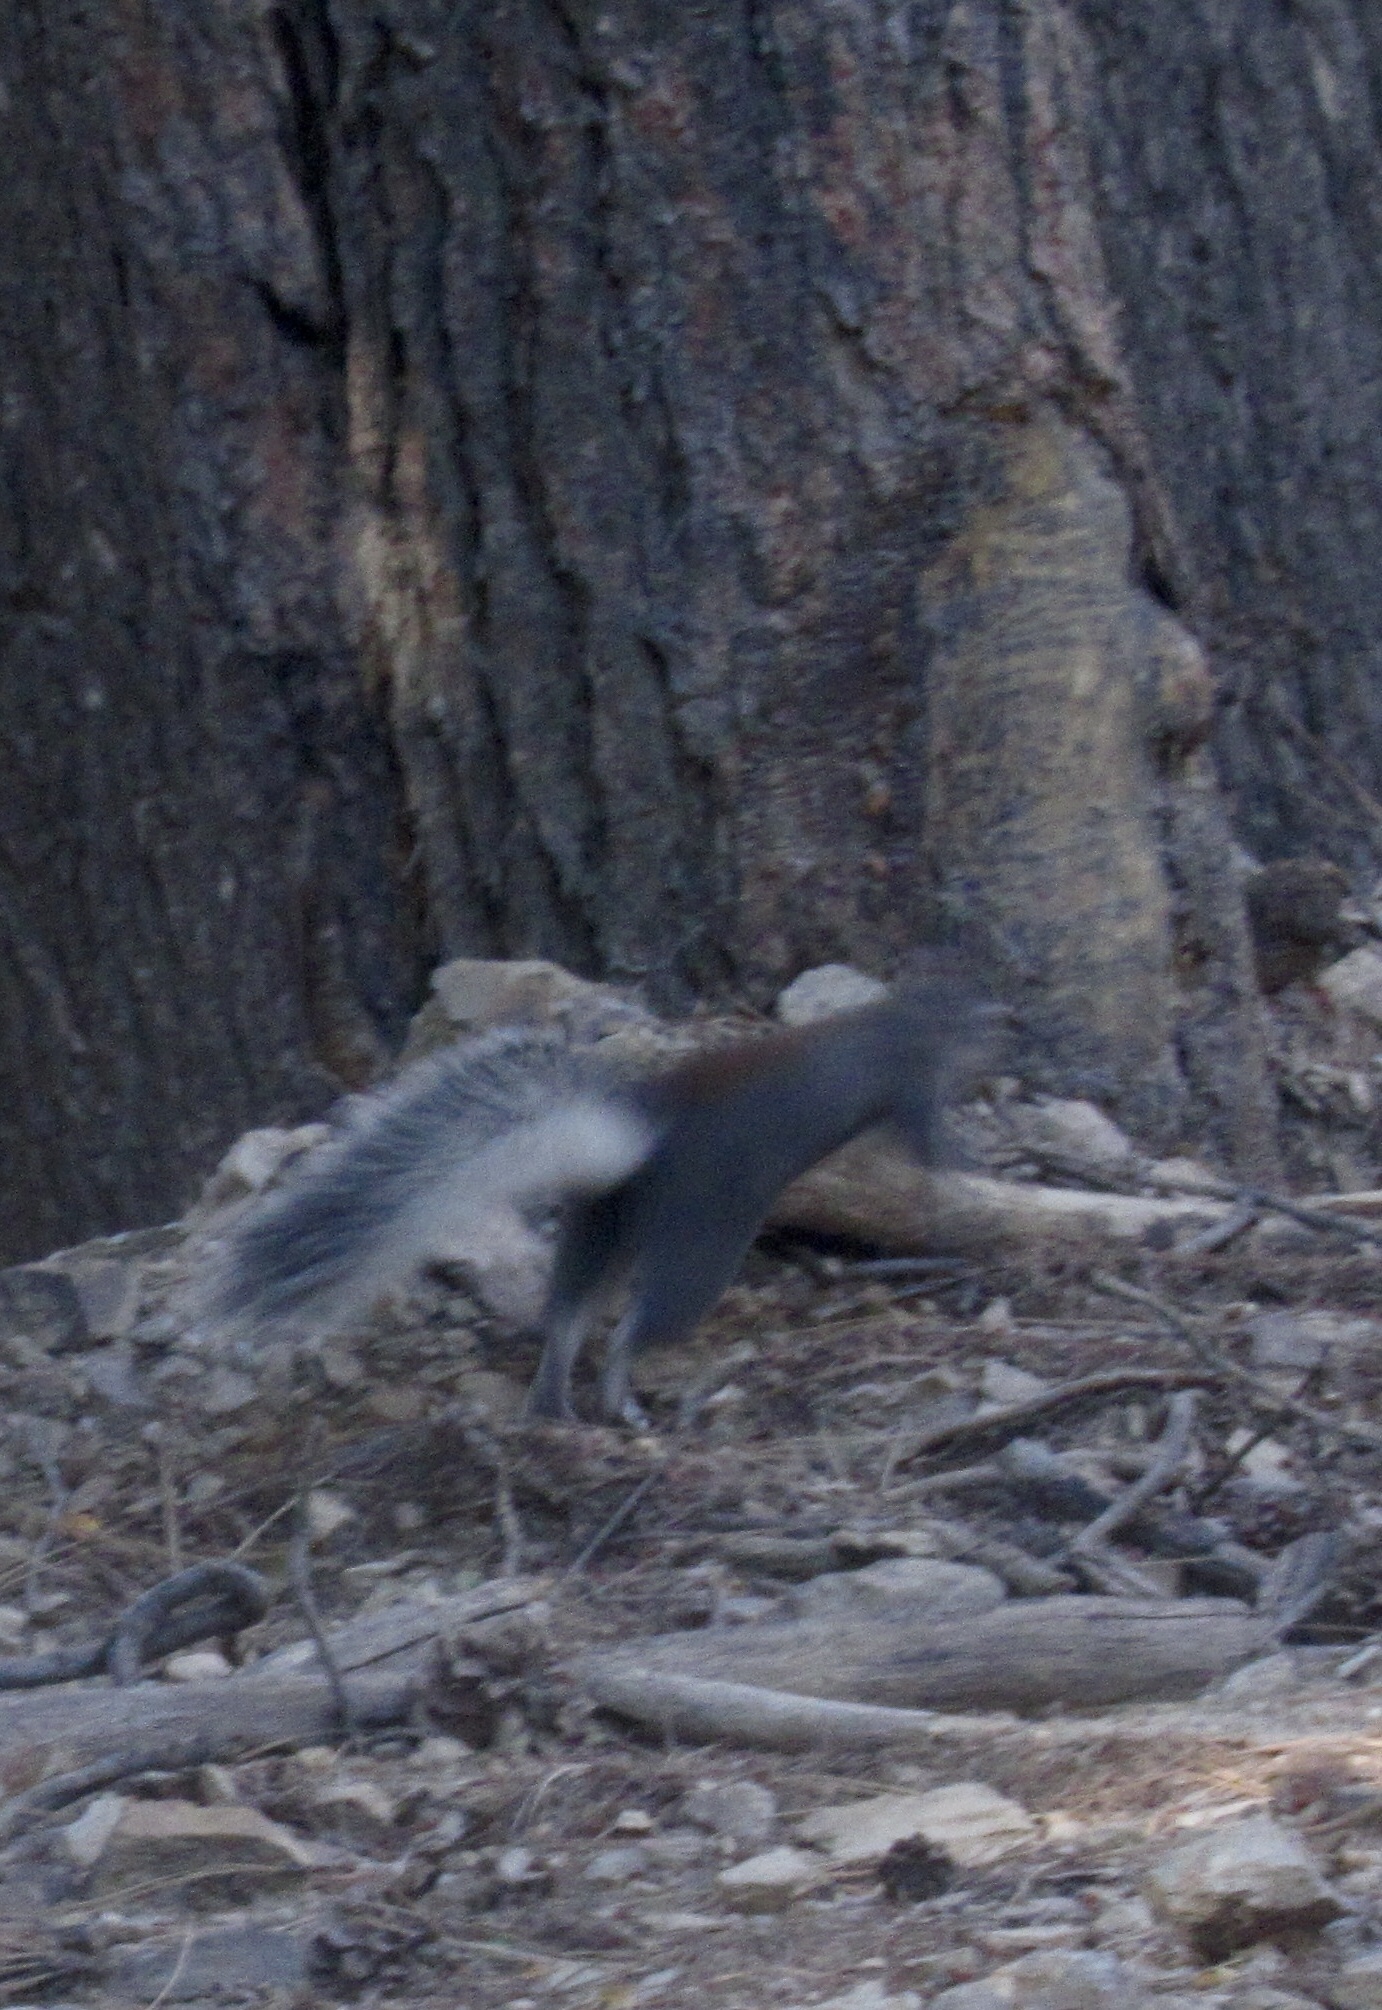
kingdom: Animalia
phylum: Chordata
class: Mammalia
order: Rodentia
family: Sciuridae
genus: Sciurus
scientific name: Sciurus aberti
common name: Abert's squirrel
